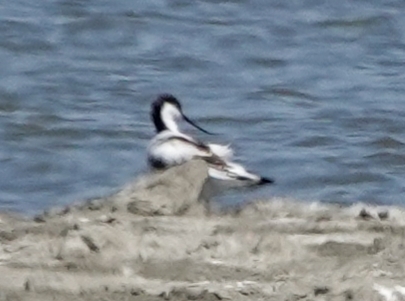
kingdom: Animalia
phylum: Chordata
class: Aves
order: Charadriiformes
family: Recurvirostridae
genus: Recurvirostra
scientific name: Recurvirostra avosetta
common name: Pied avocet
